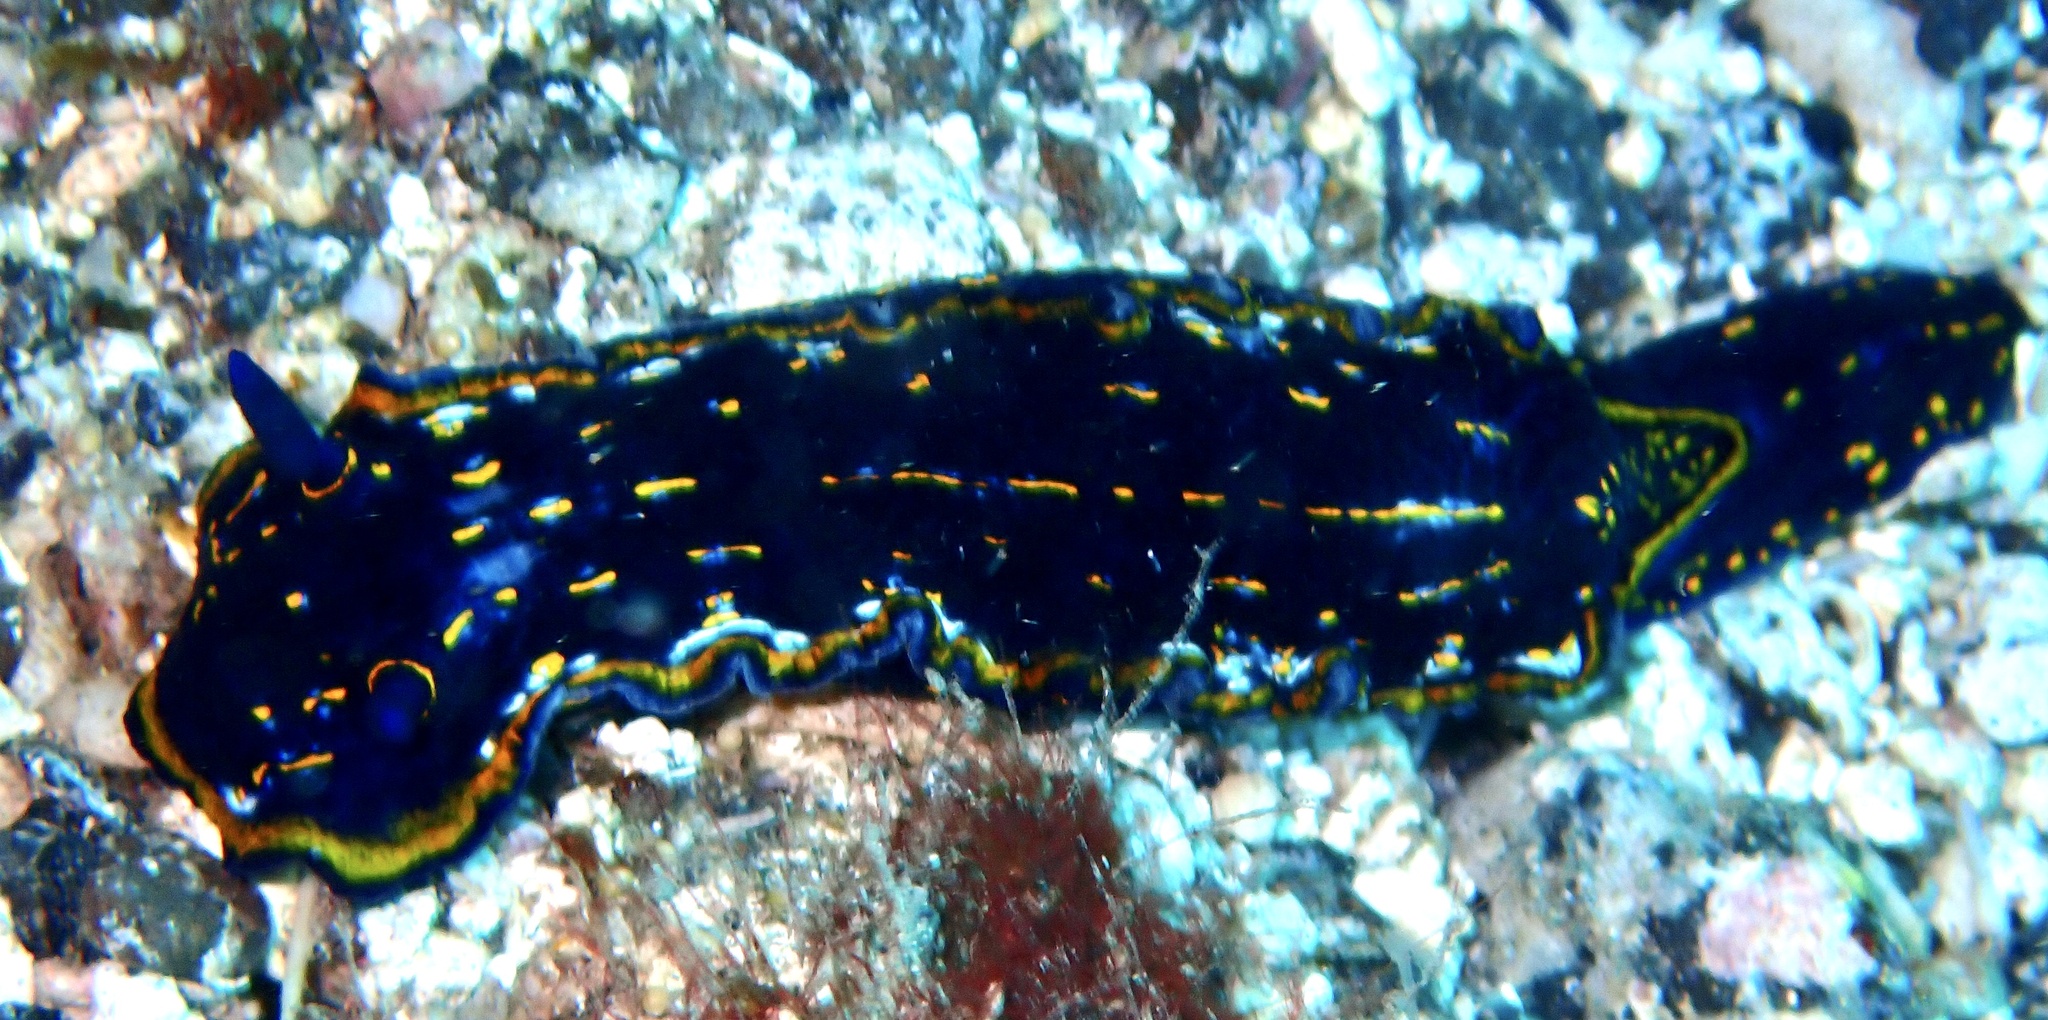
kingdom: Animalia
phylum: Mollusca
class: Gastropoda
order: Nudibranchia
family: Chromodorididae
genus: Felimare
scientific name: Felimare tema
